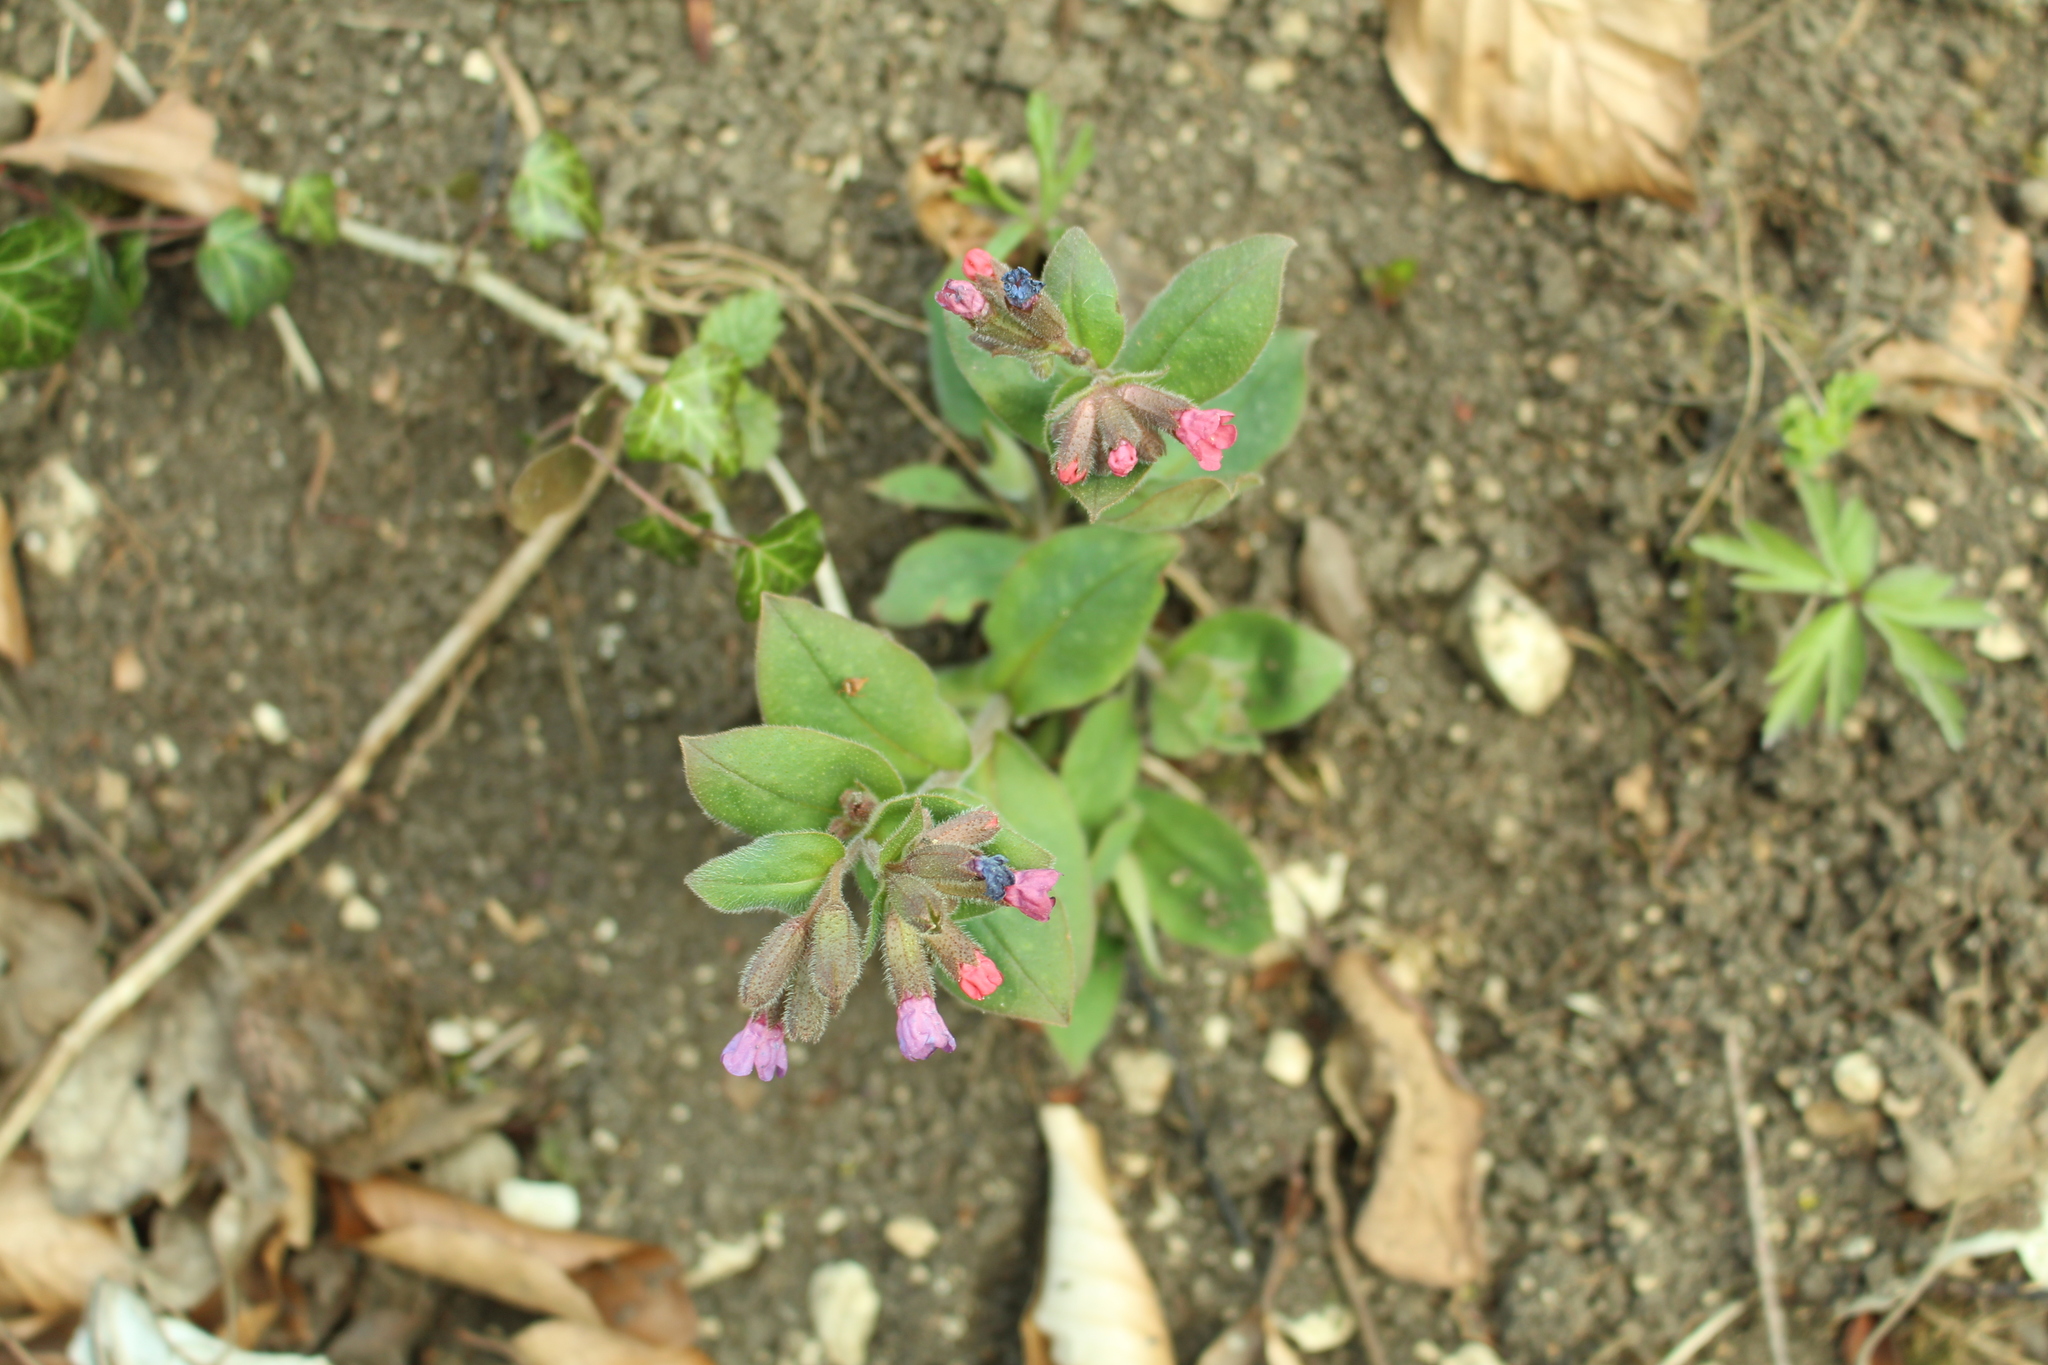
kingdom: Plantae
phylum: Tracheophyta
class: Magnoliopsida
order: Boraginales
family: Boraginaceae
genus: Pulmonaria
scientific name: Pulmonaria obscura
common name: Suffolk lungwort
